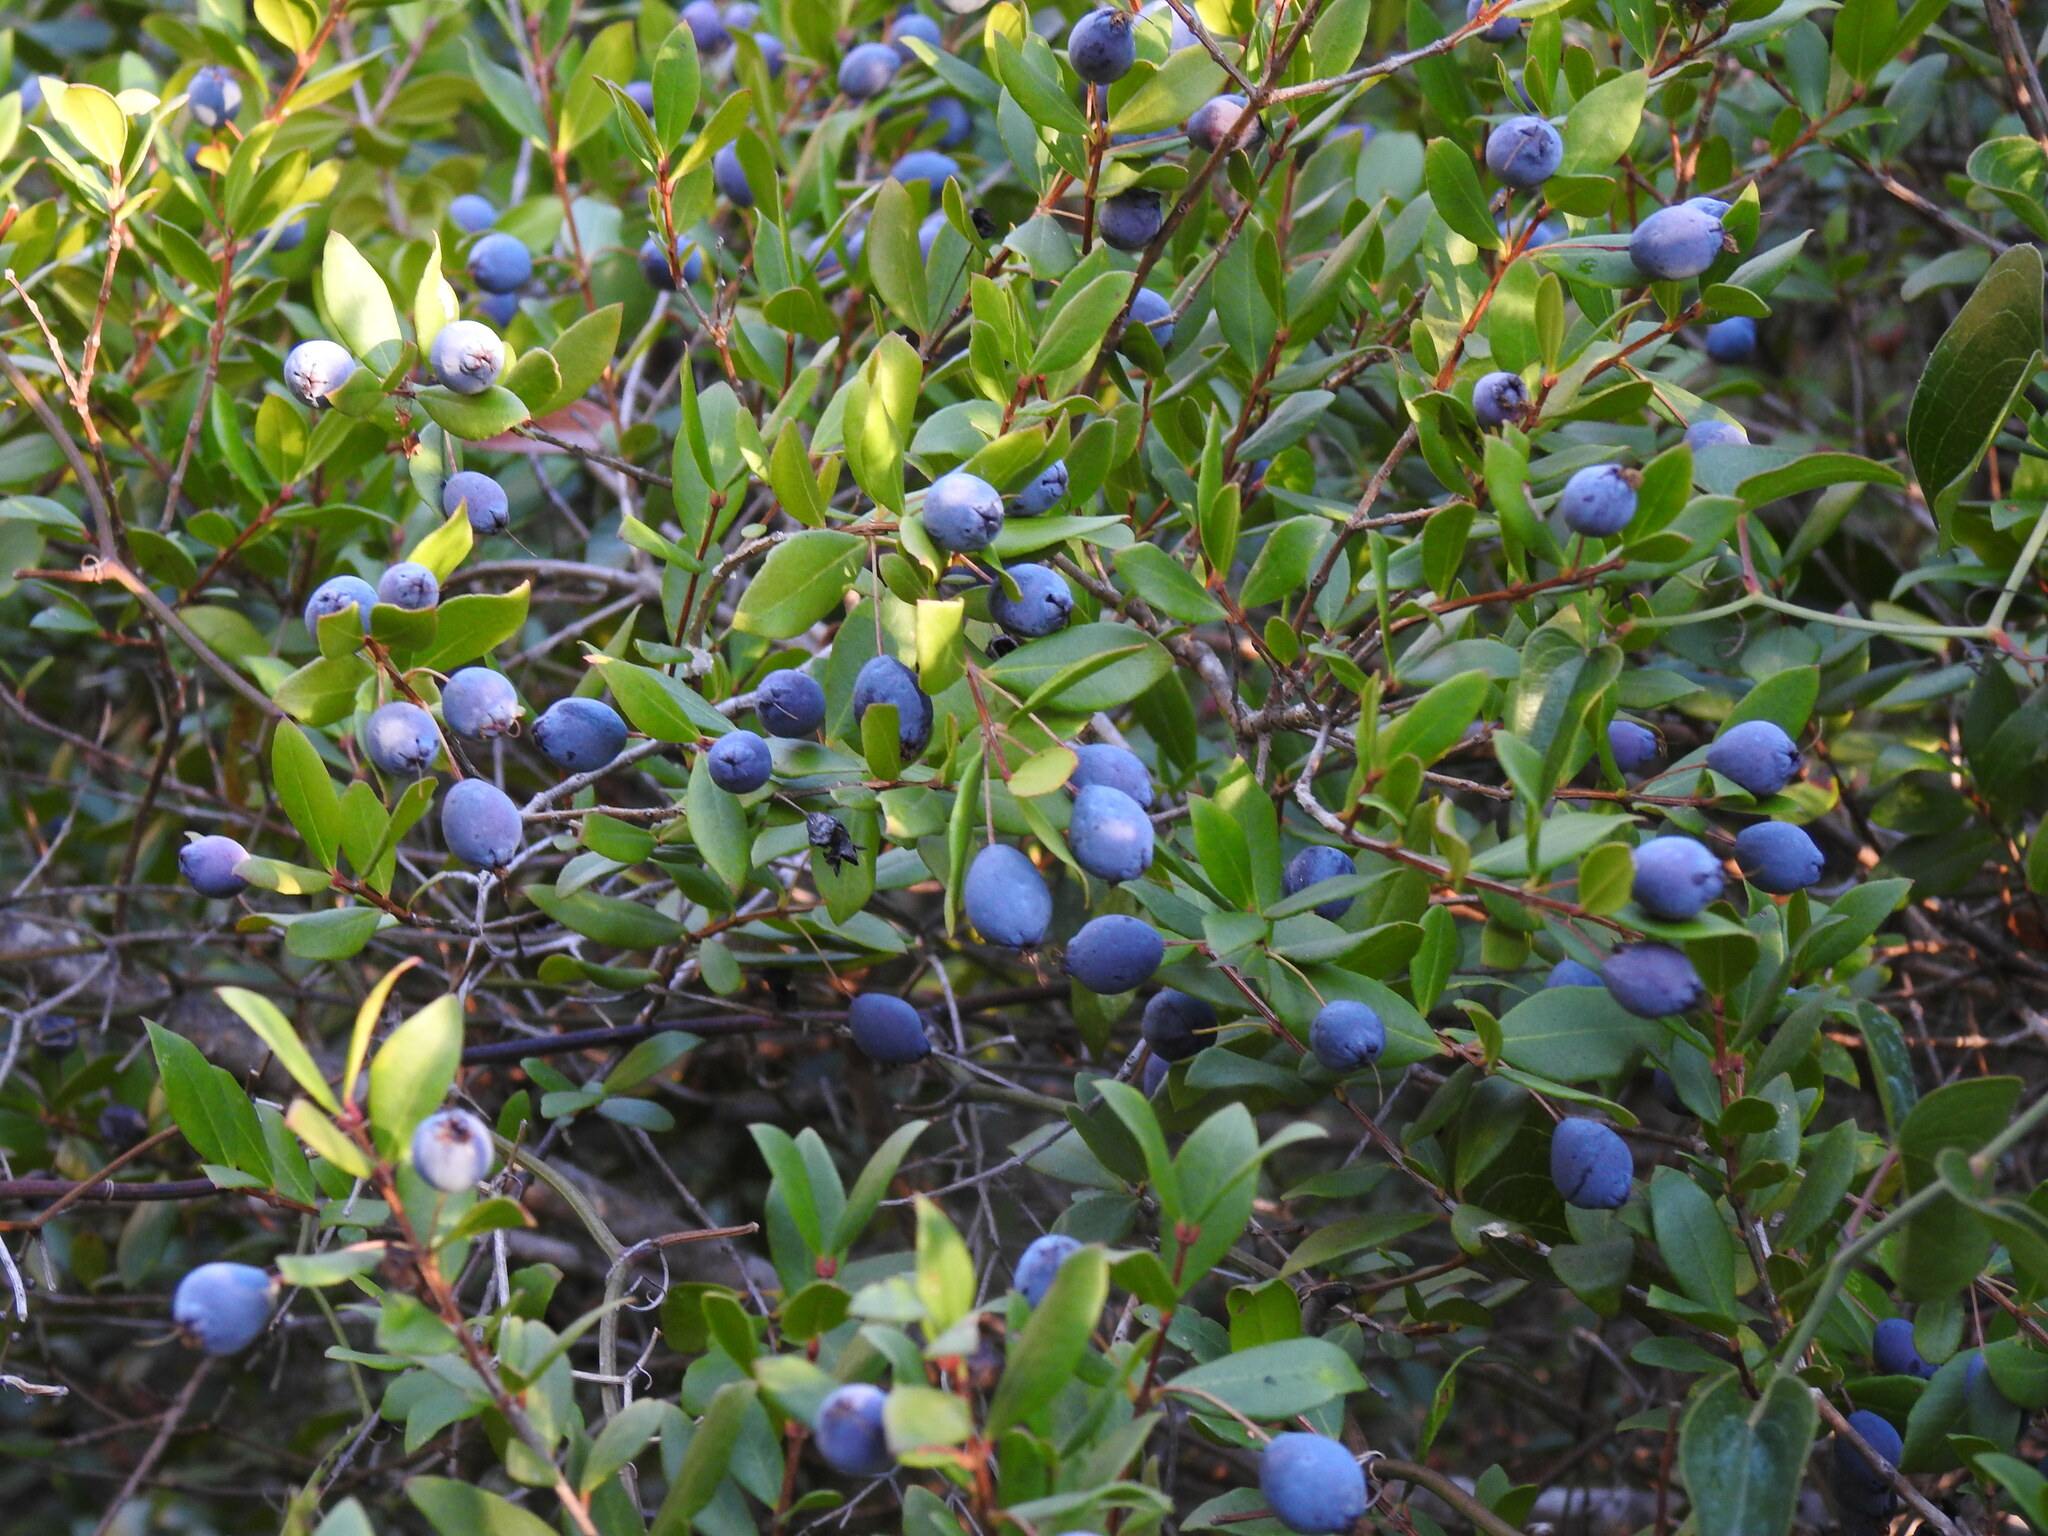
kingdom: Plantae
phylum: Tracheophyta
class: Magnoliopsida
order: Myrtales
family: Myrtaceae
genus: Myrtus
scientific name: Myrtus communis
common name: Myrtle
